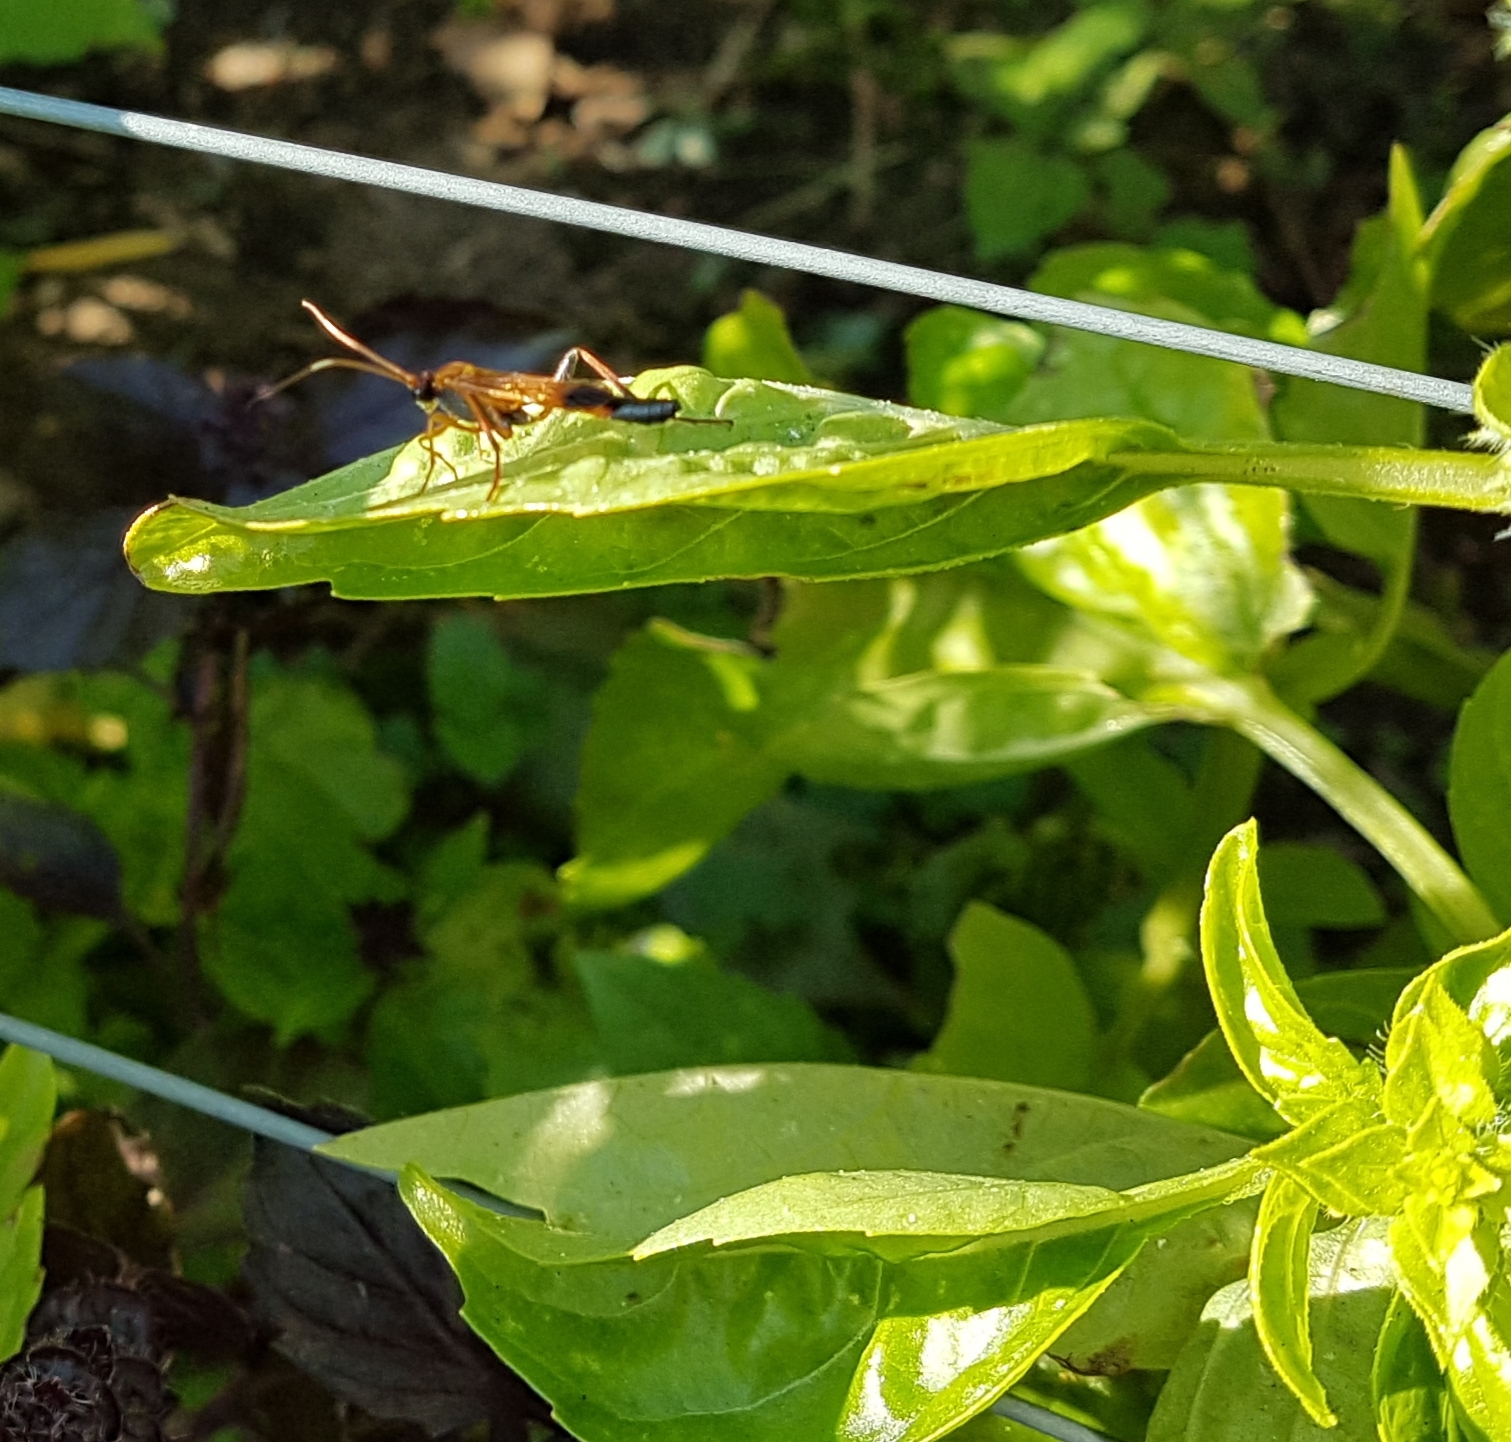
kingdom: Animalia
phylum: Arthropoda
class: Insecta
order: Hymenoptera
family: Ichneumonidae
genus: Ctenochares
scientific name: Ctenochares bicolorus
